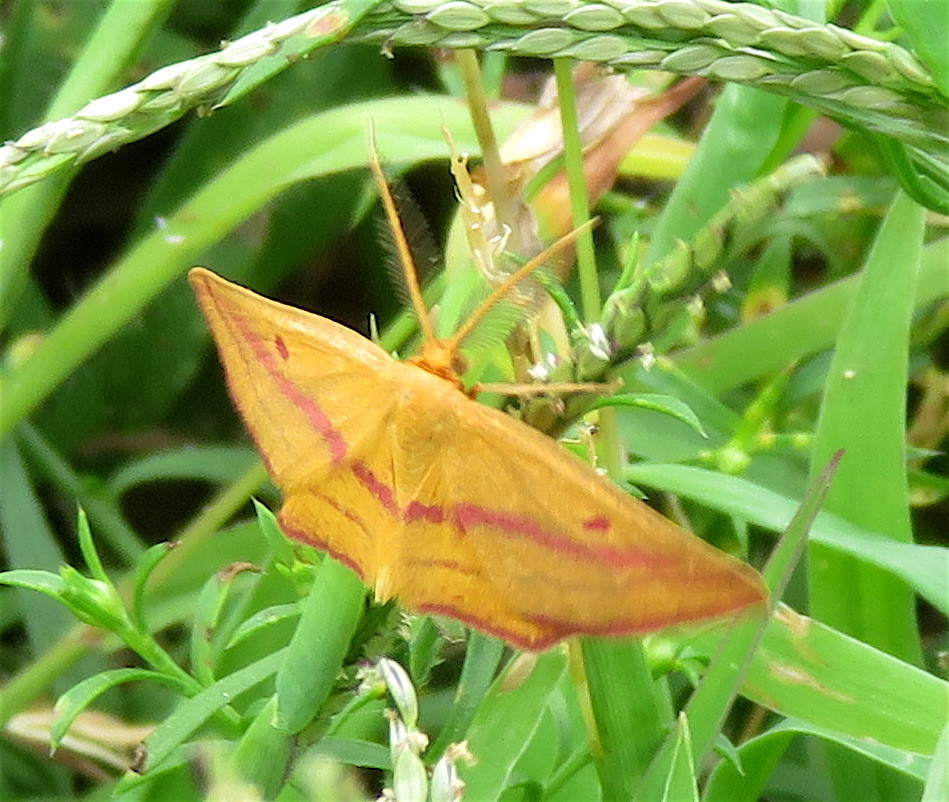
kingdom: Animalia
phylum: Arthropoda
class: Insecta
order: Lepidoptera
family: Geometridae
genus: Haematopis
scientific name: Haematopis grataria
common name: Chickweed geometer
